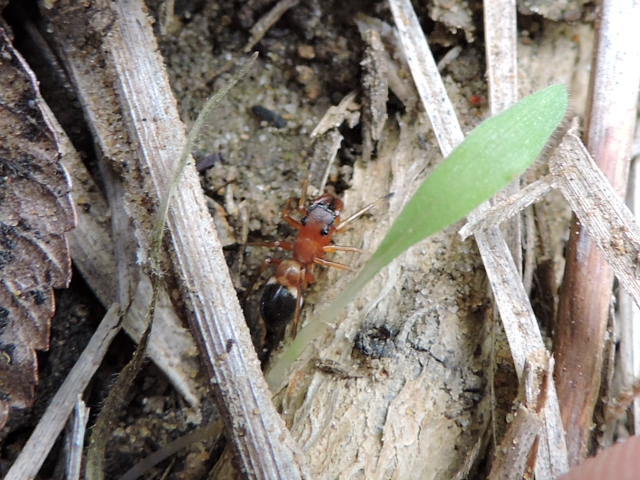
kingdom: Animalia
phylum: Arthropoda
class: Arachnida
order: Araneae
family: Salticidae
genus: Sarinda
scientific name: Sarinda hentzi
